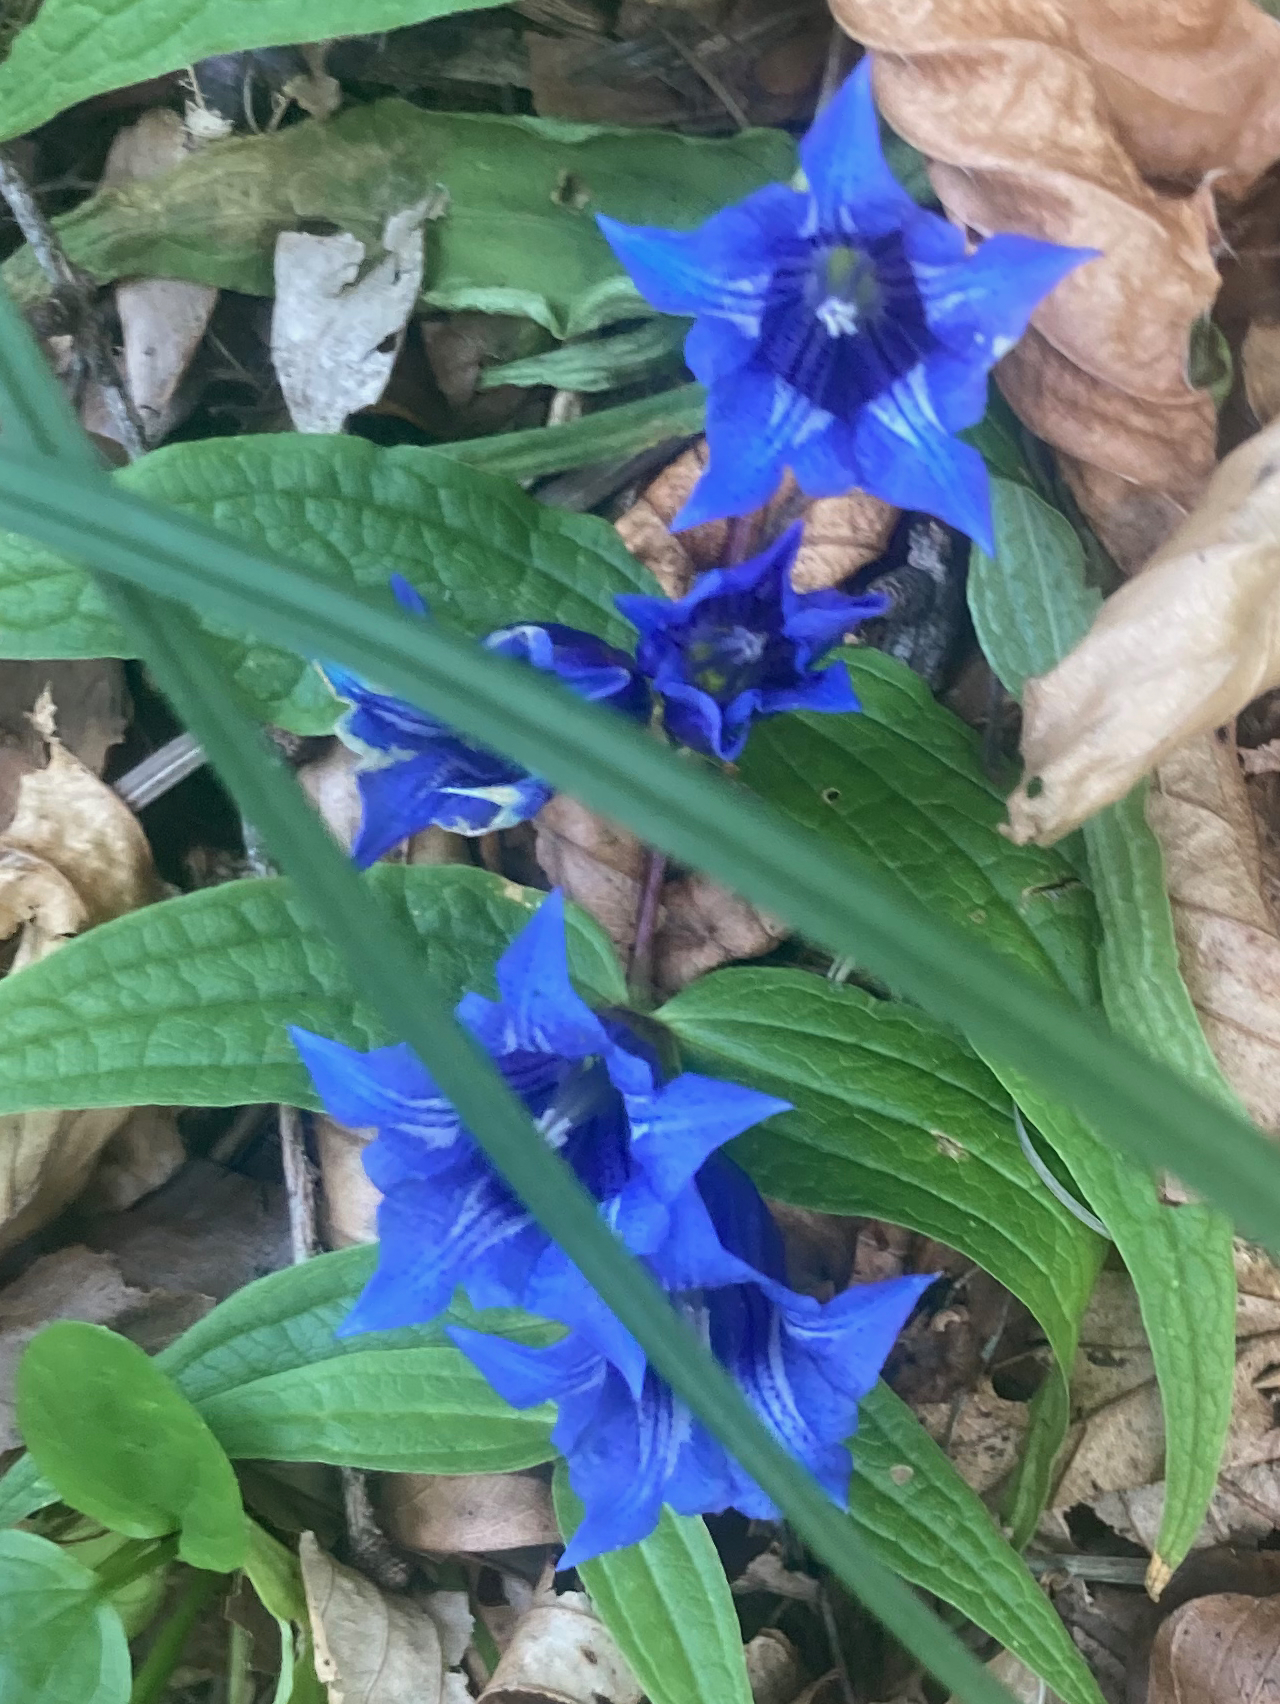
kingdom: Plantae
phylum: Tracheophyta
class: Magnoliopsida
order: Gentianales
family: Gentianaceae
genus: Gentiana
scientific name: Gentiana asclepiadea
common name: Willow gentian
